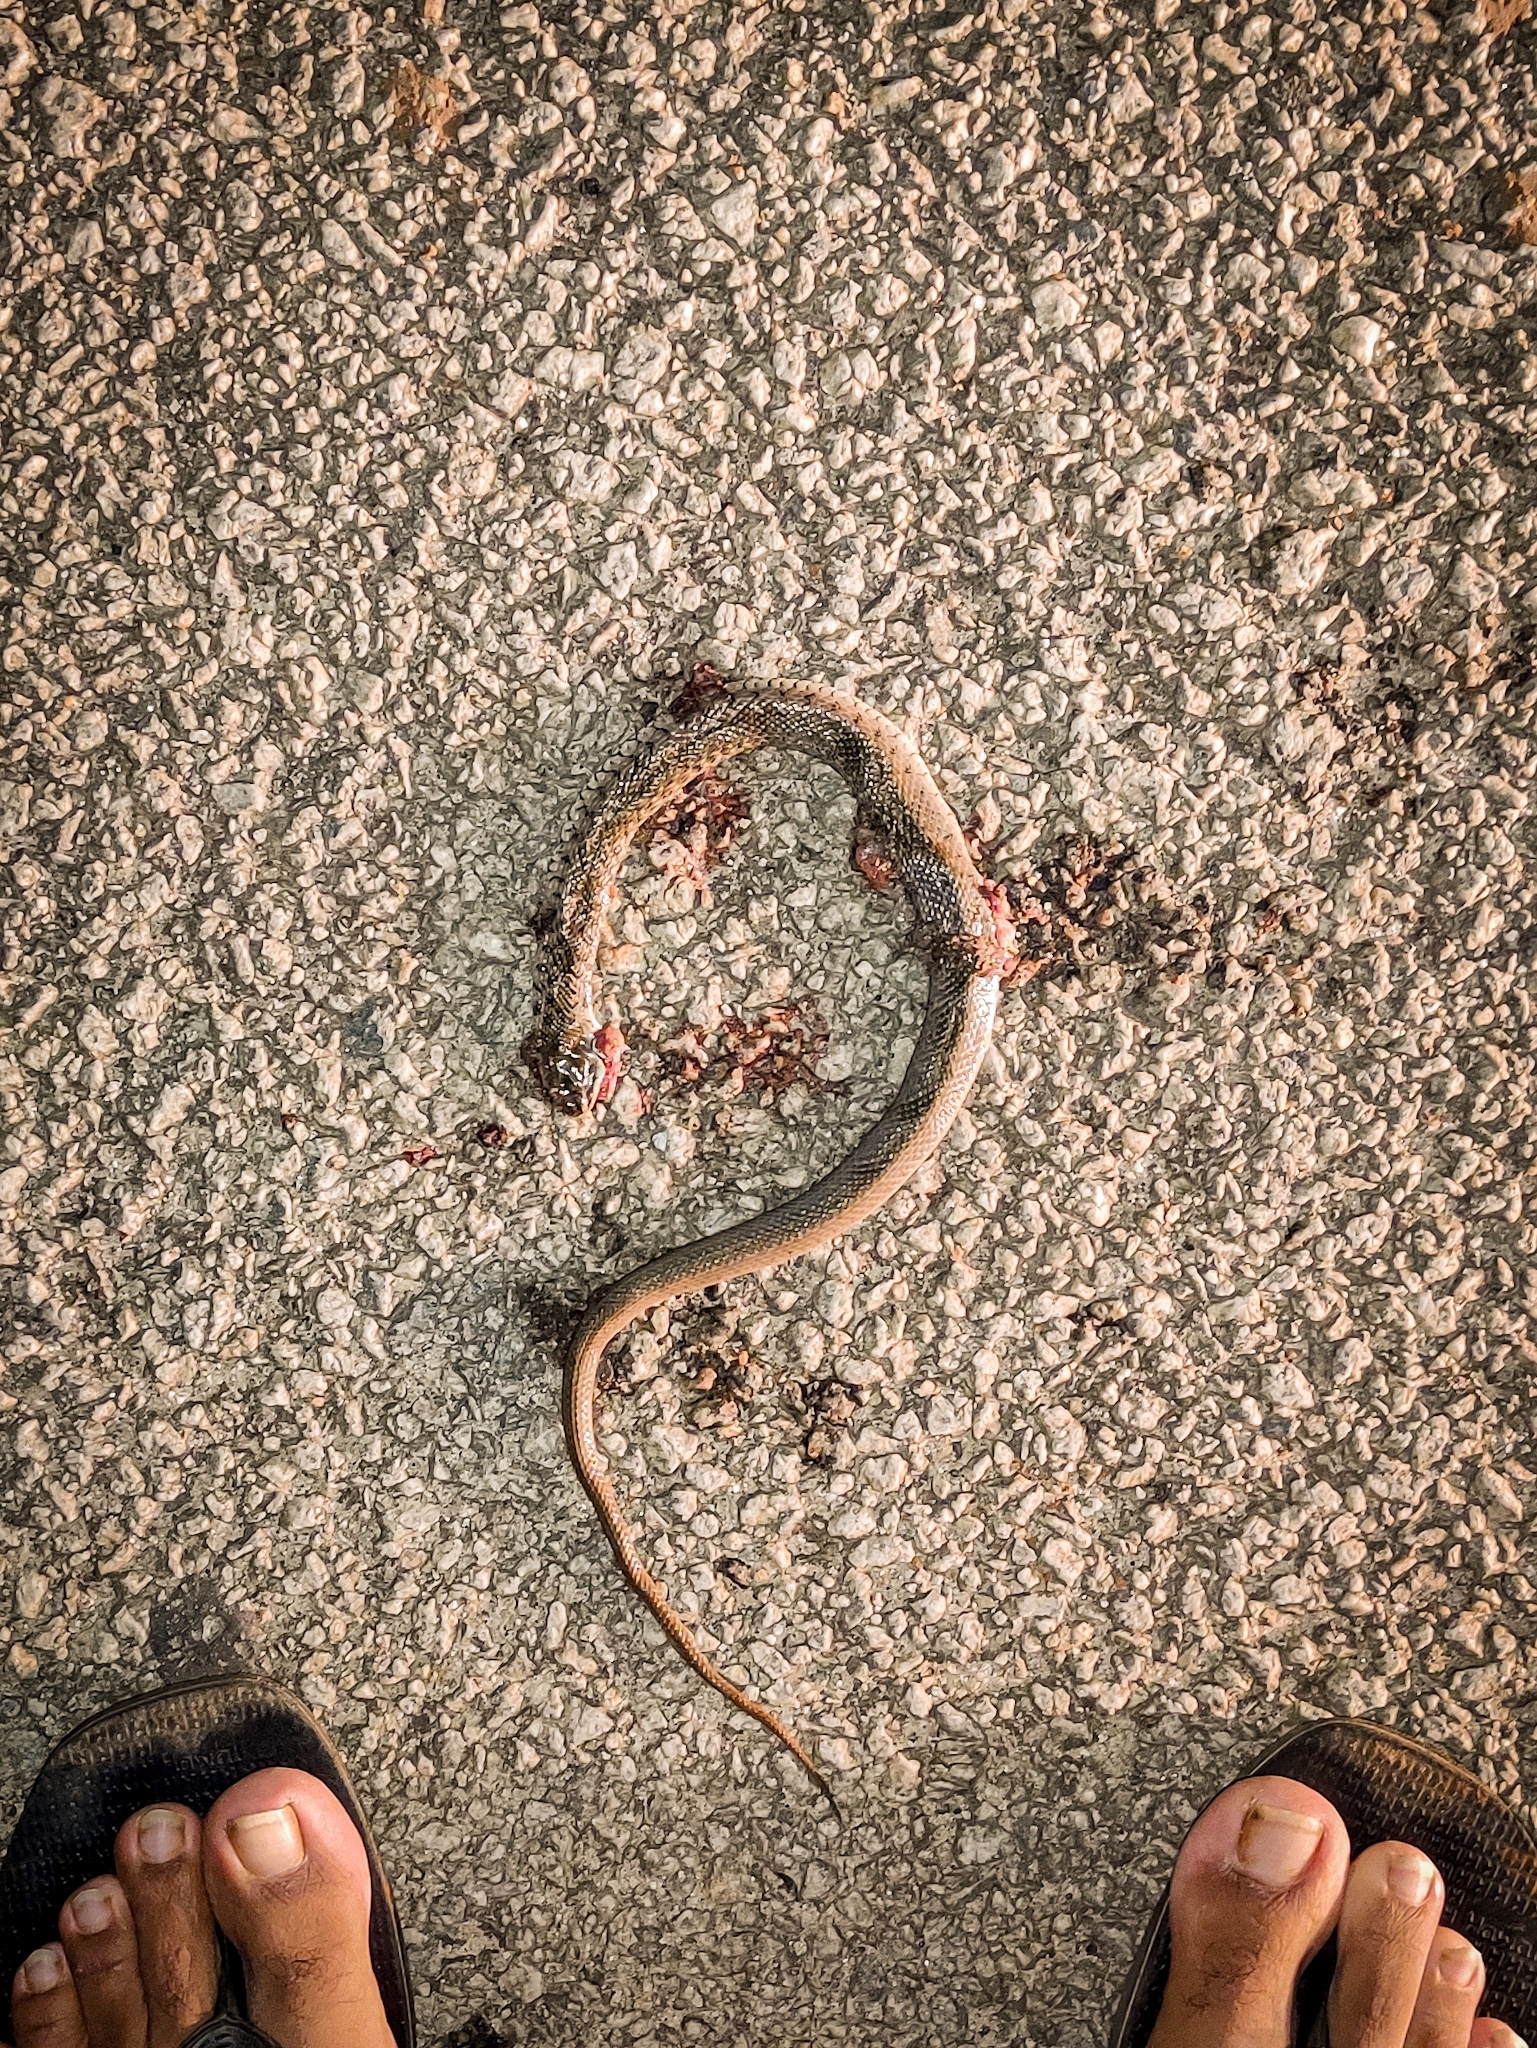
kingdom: Animalia
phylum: Chordata
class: Squamata
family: Colubridae
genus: Fowlea
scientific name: Fowlea piscator
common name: Asiatic water snake
